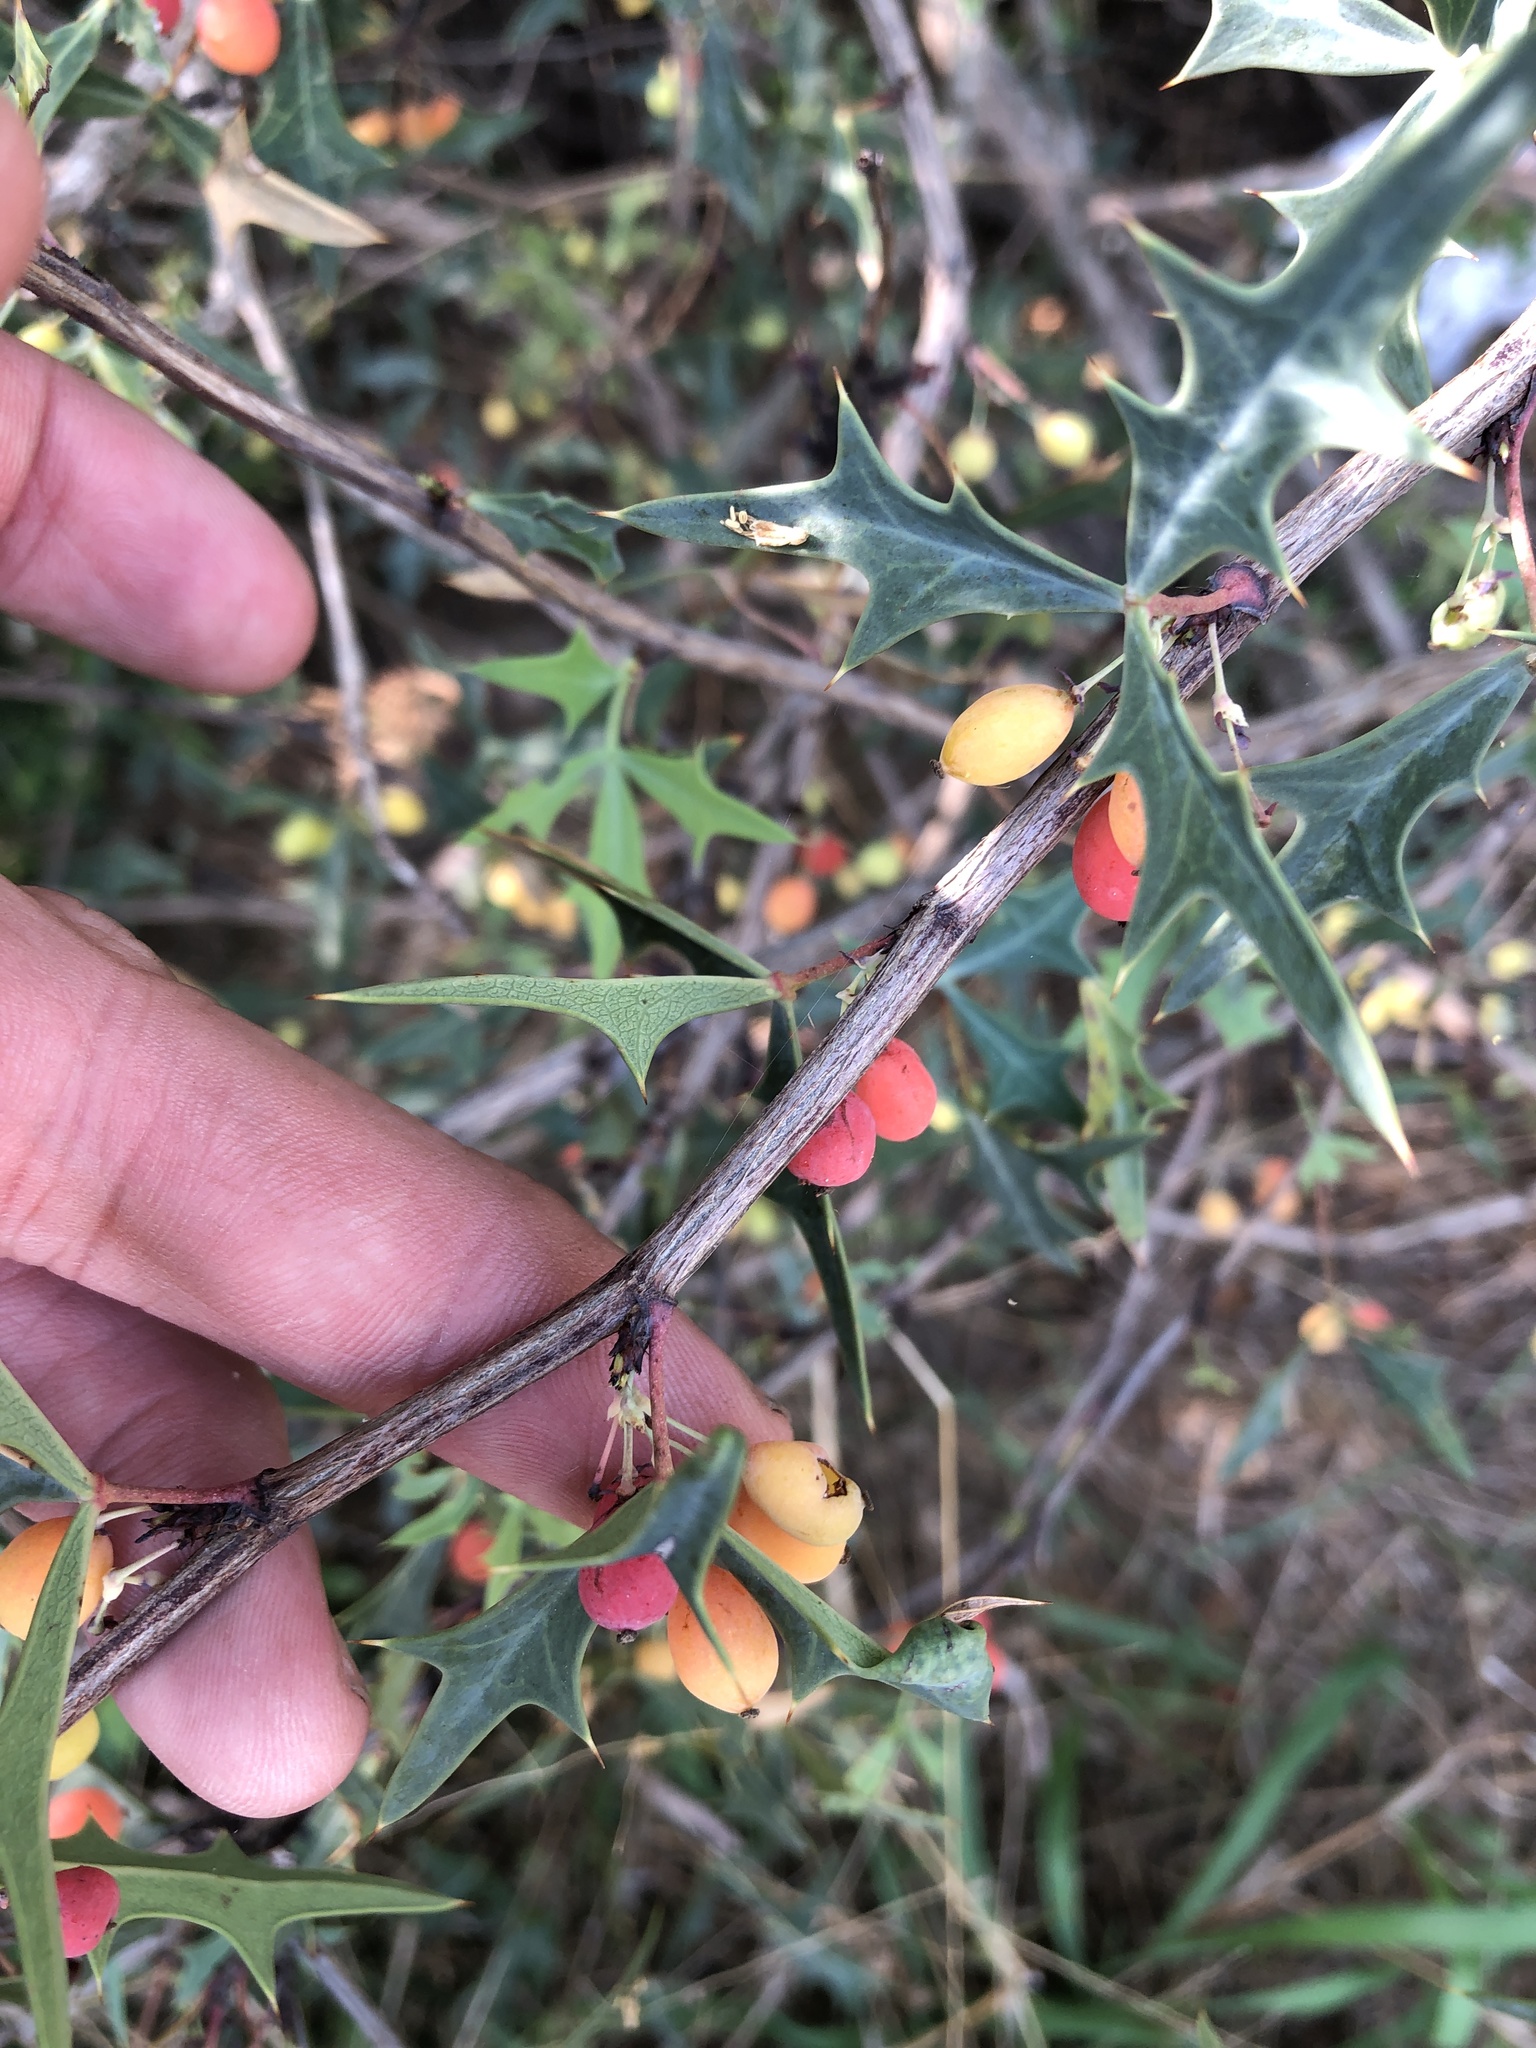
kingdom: Plantae
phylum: Tracheophyta
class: Magnoliopsida
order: Ranunculales
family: Berberidaceae
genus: Alloberberis
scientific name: Alloberberis trifoliolata
